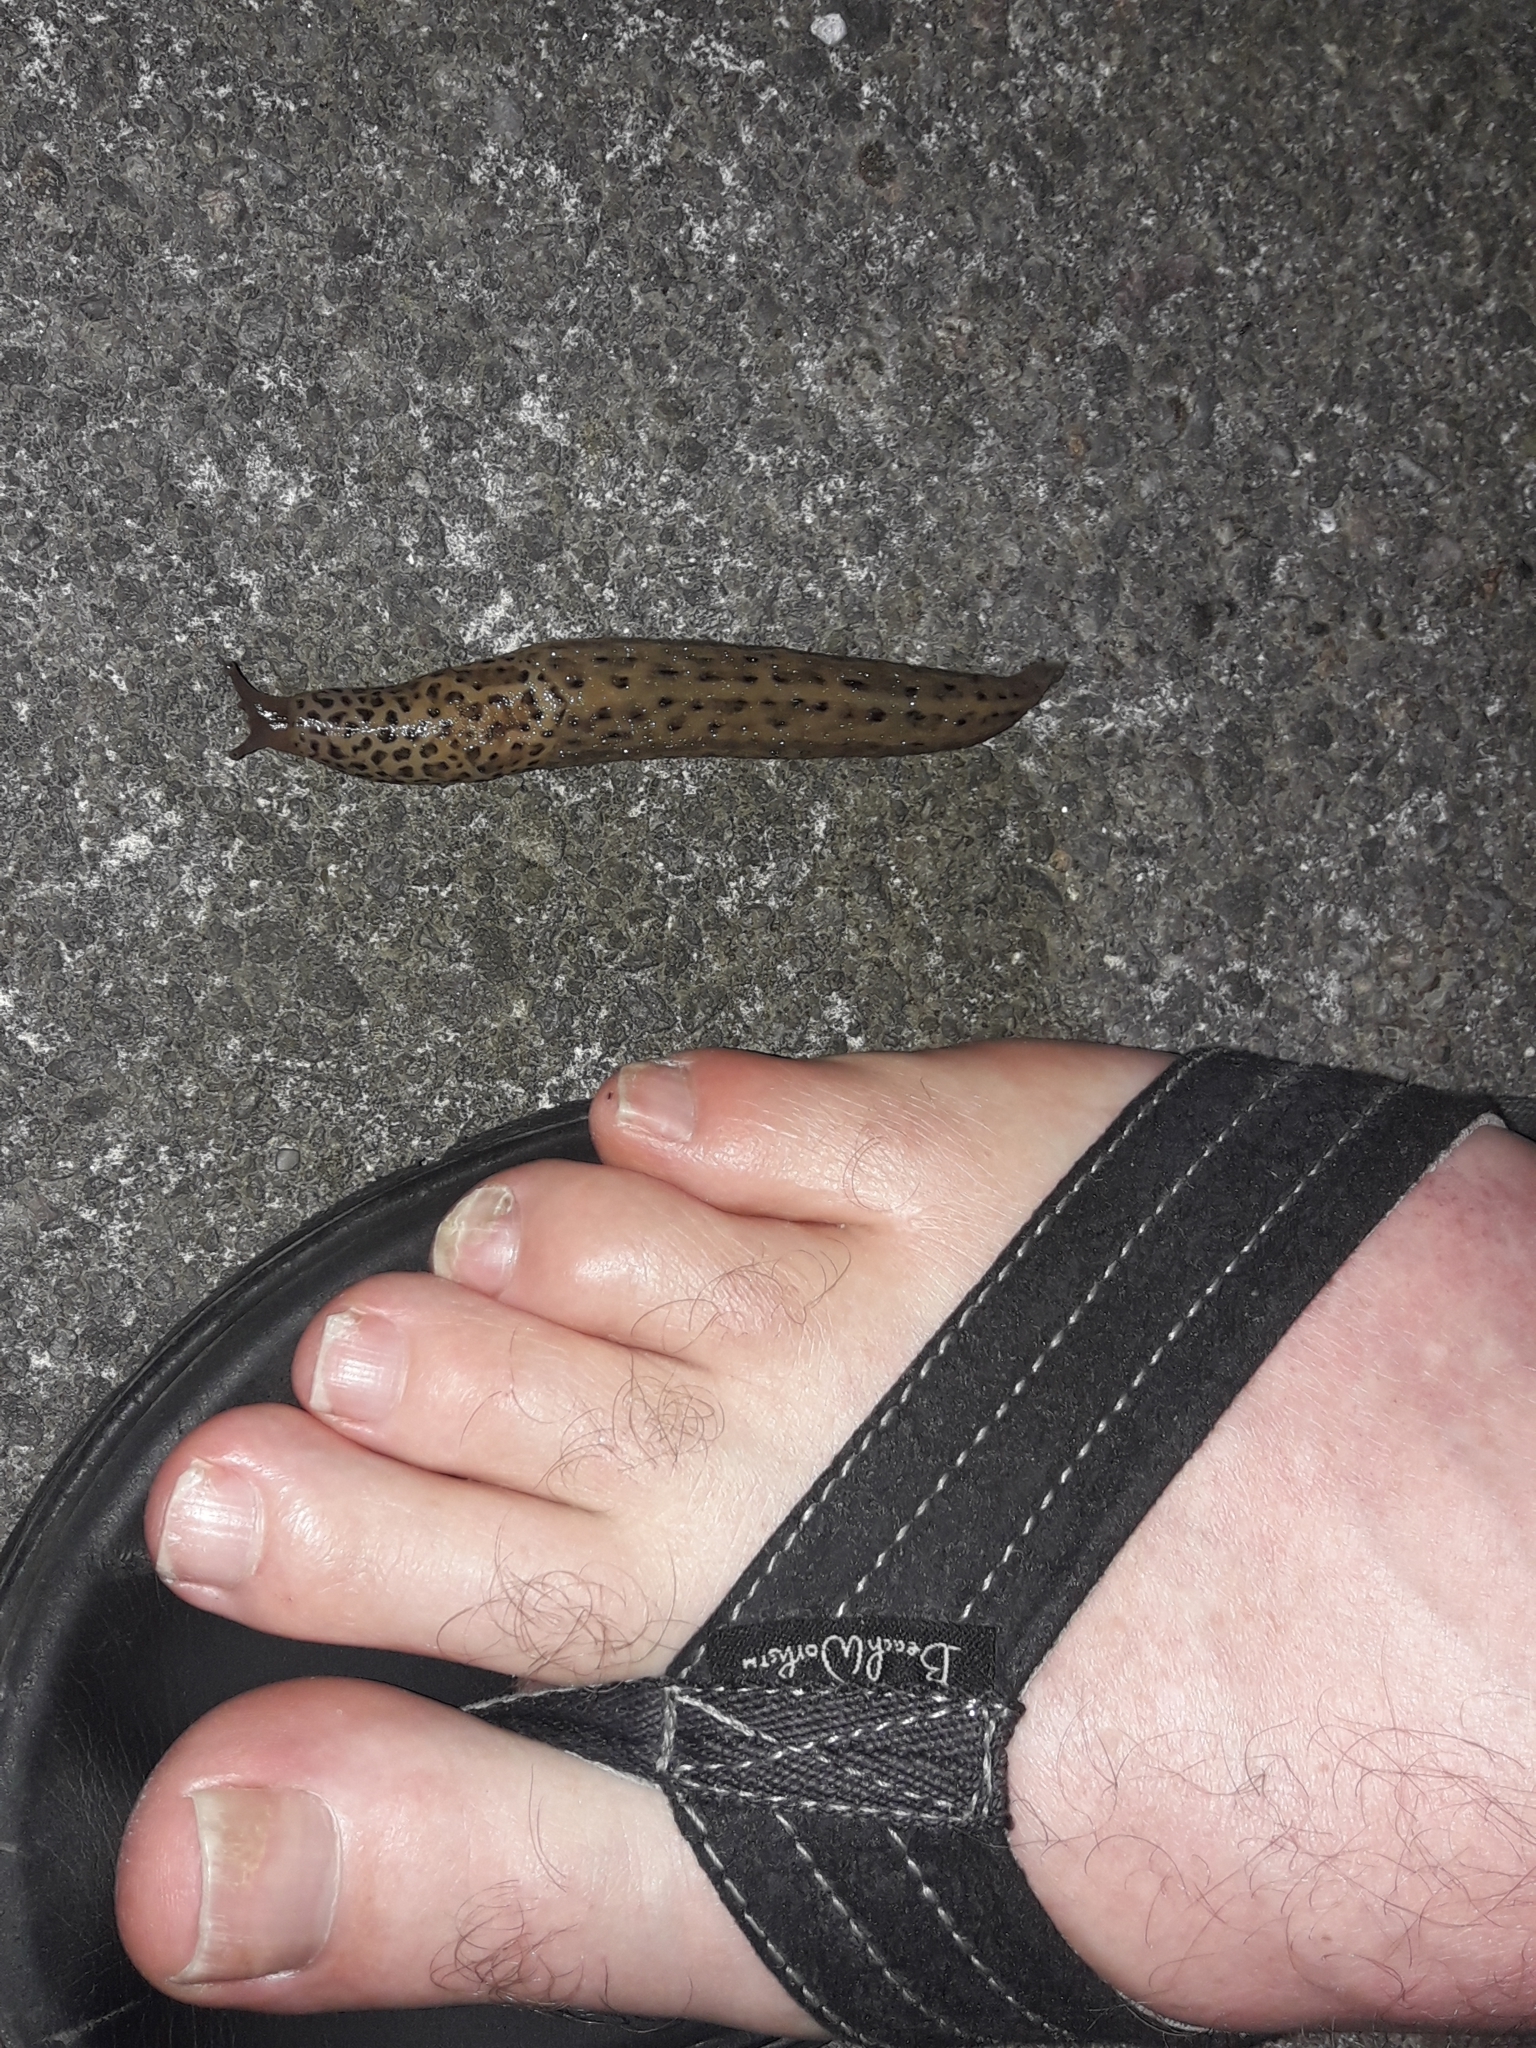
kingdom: Animalia
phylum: Mollusca
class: Gastropoda
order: Stylommatophora
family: Limacidae
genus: Limax
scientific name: Limax maximus
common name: Great grey slug
